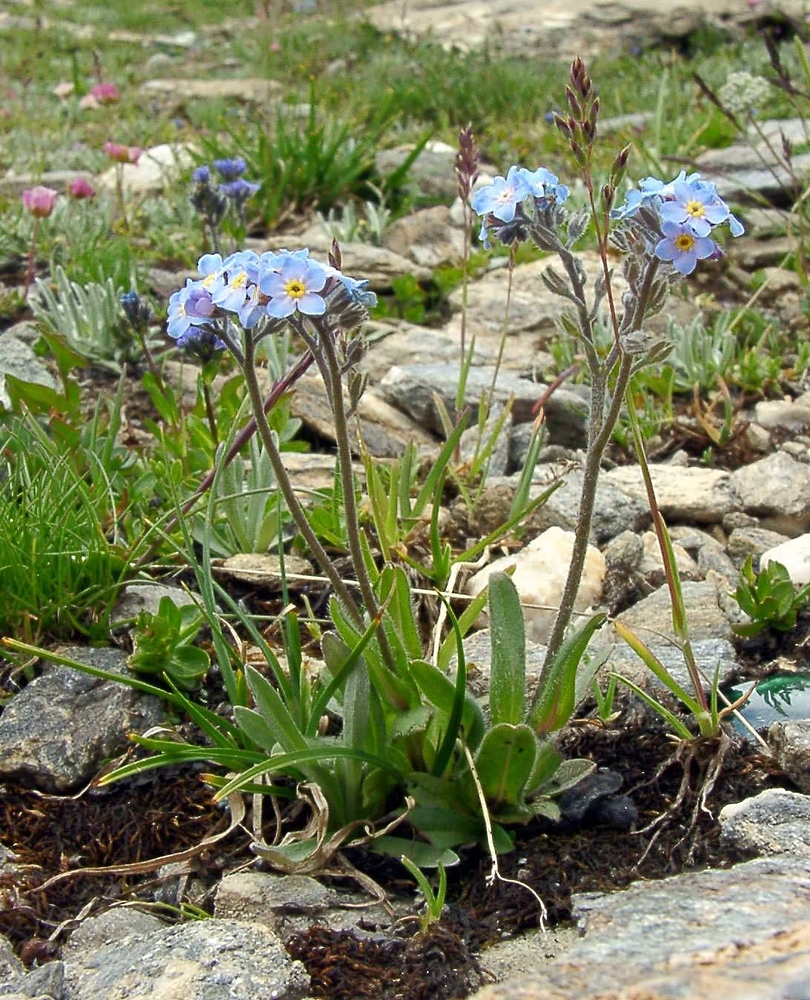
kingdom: Plantae
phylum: Tracheophyta
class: Magnoliopsida
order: Boraginales
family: Boraginaceae
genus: Myosotis
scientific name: Myosotis alpestris
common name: Alpine forget-me-not
